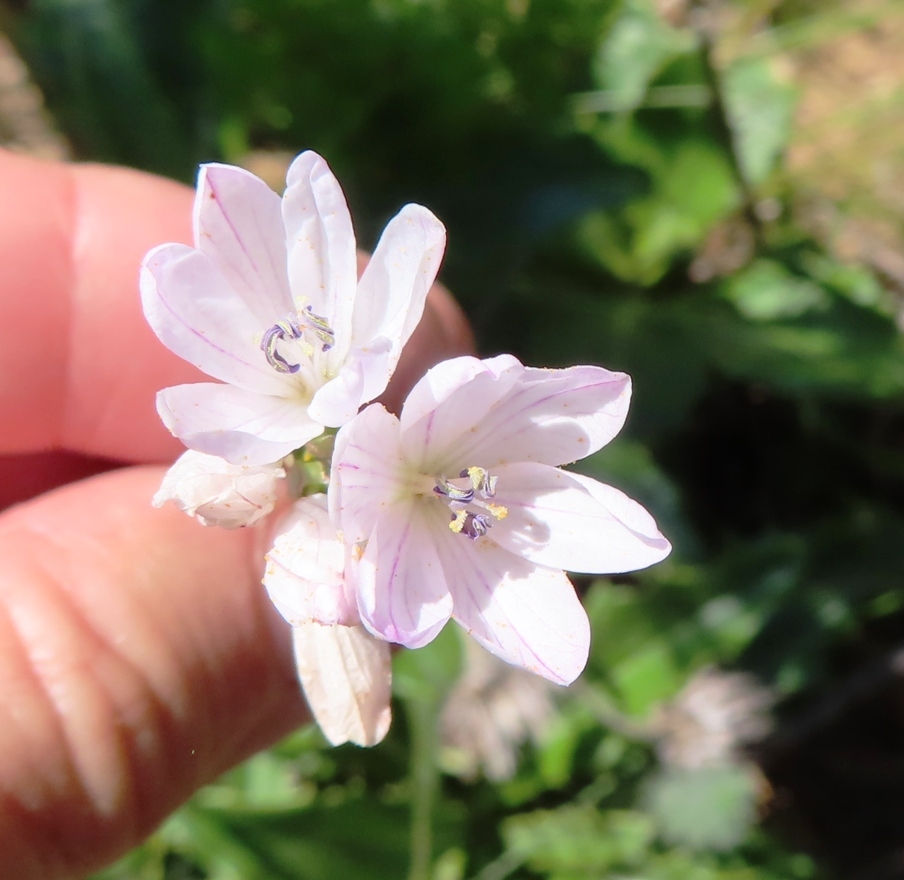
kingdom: Plantae
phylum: Tracheophyta
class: Liliopsida
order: Asparagales
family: Iridaceae
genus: Ixia
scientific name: Ixia flexuosa
